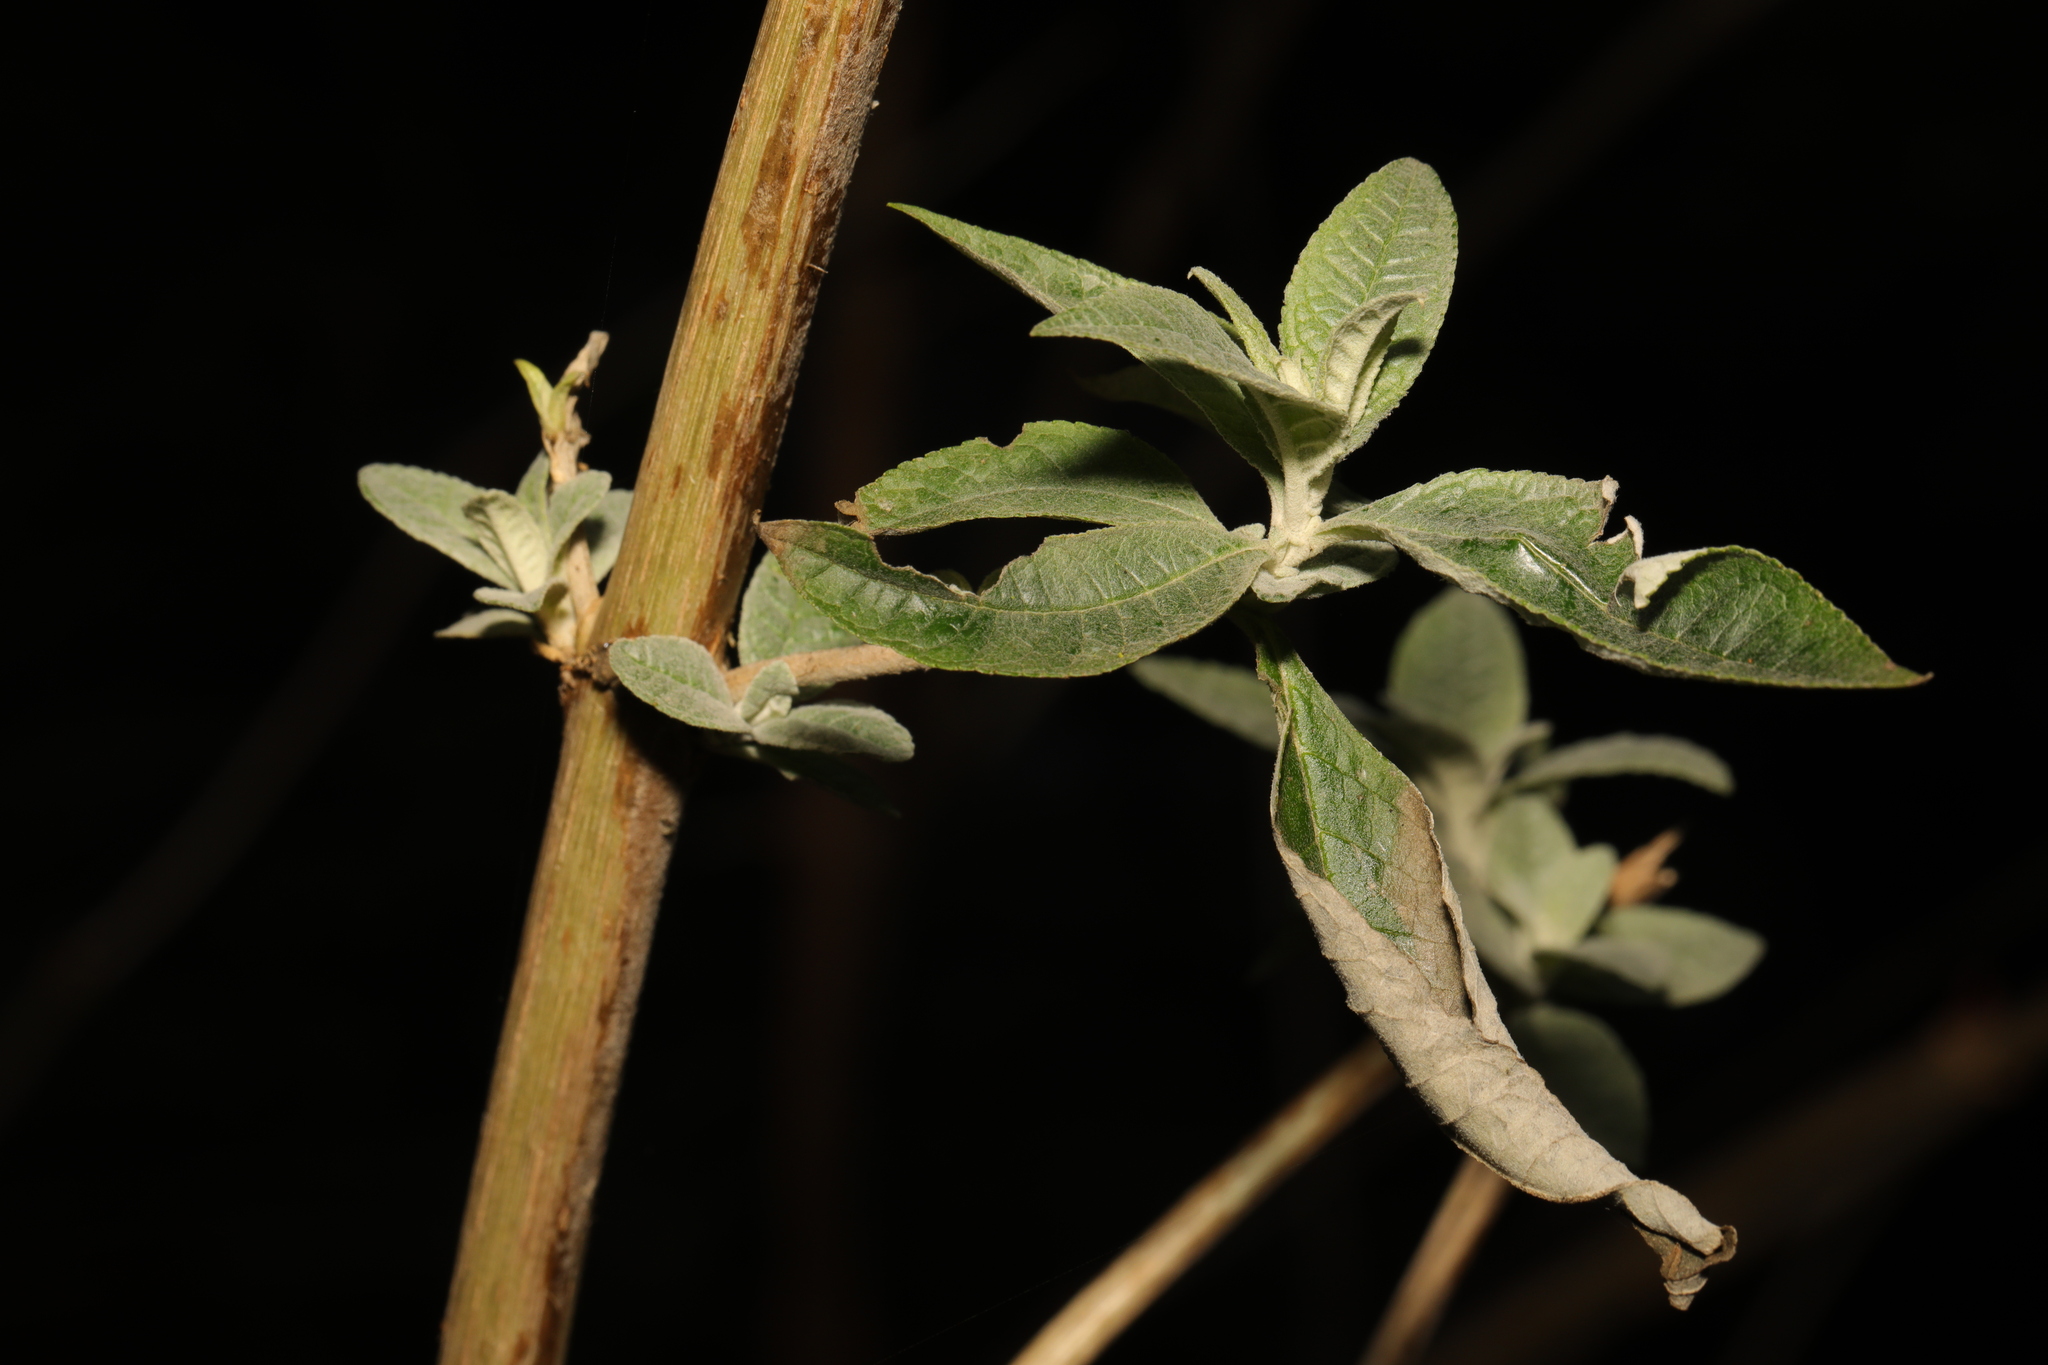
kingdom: Plantae
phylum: Tracheophyta
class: Magnoliopsida
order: Lamiales
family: Scrophulariaceae
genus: Buddleja
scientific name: Buddleja davidii
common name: Butterfly-bush
